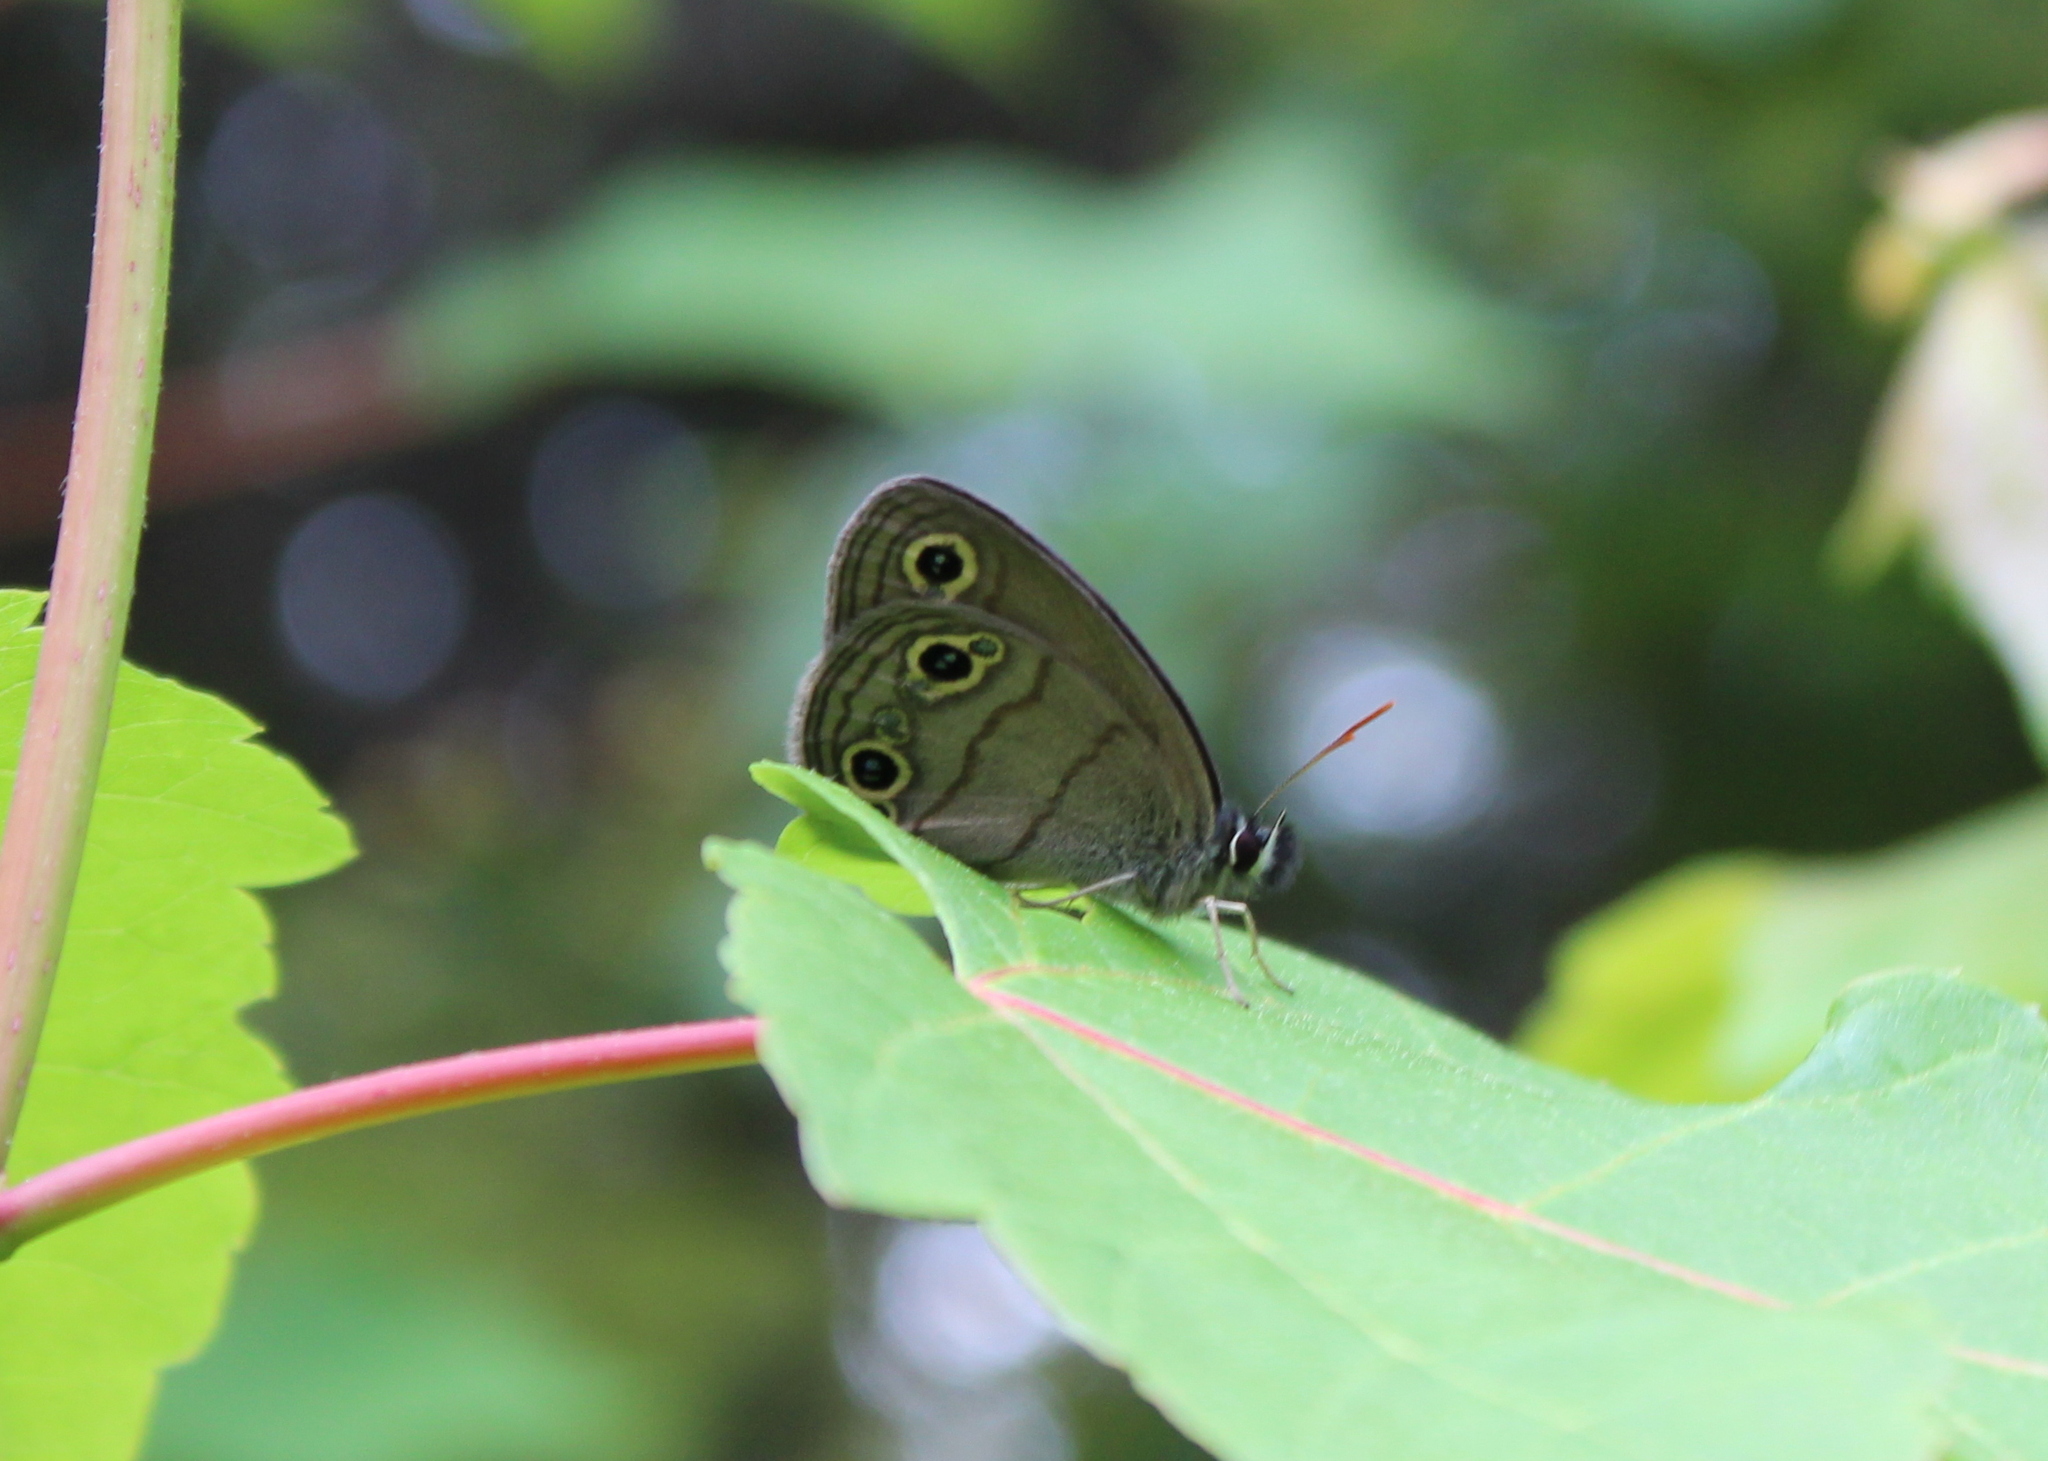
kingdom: Animalia
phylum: Arthropoda
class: Insecta
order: Lepidoptera
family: Nymphalidae
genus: Euptychia
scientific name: Euptychia cymela
